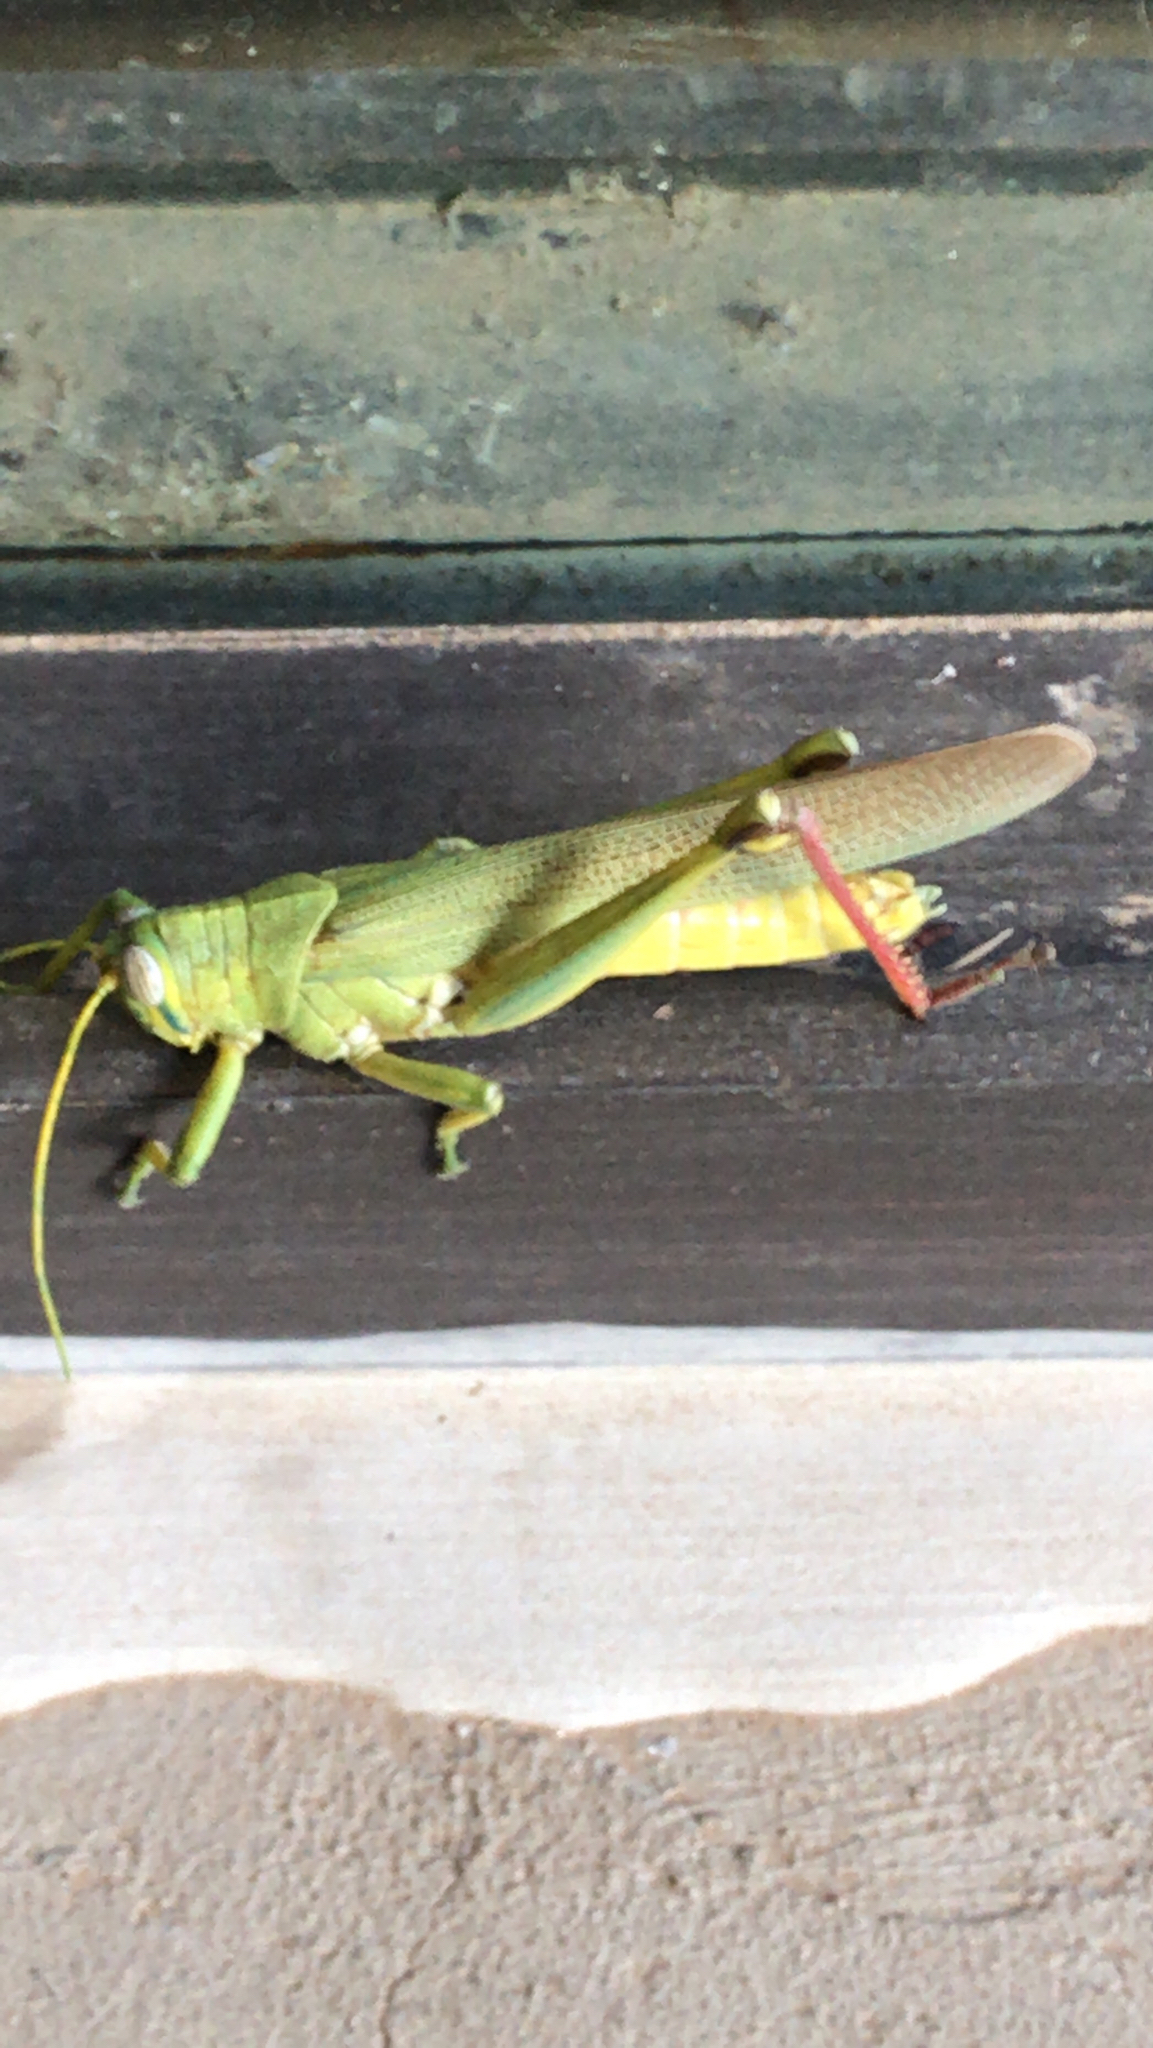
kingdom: Animalia
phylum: Arthropoda
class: Insecta
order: Orthoptera
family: Acrididae
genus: Schistocerca
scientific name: Schistocerca shoshone
